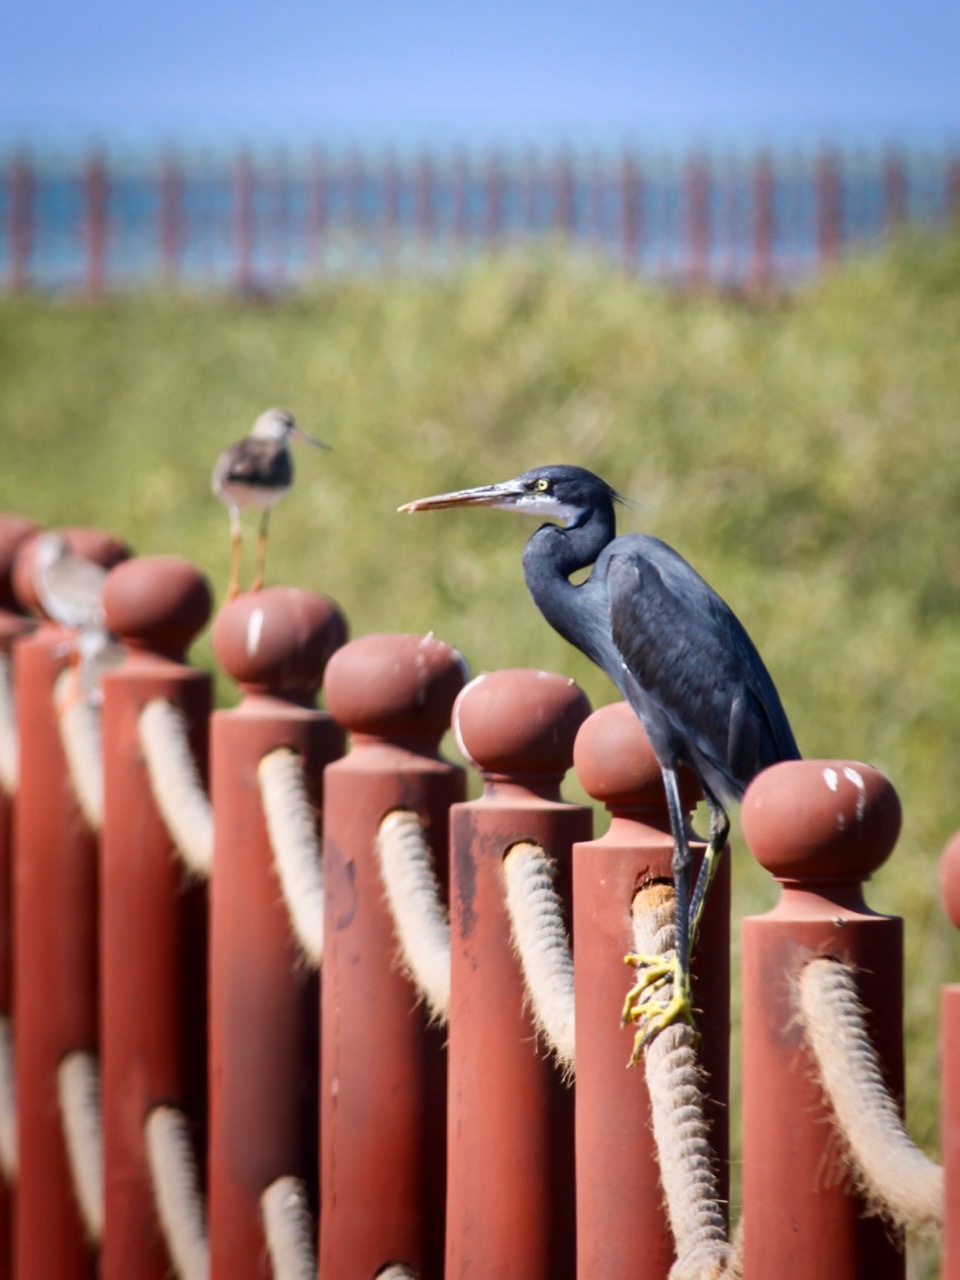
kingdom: Animalia
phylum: Chordata
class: Aves
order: Pelecaniformes
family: Ardeidae
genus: Egretta
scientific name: Egretta gularis
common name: Western reef-heron
